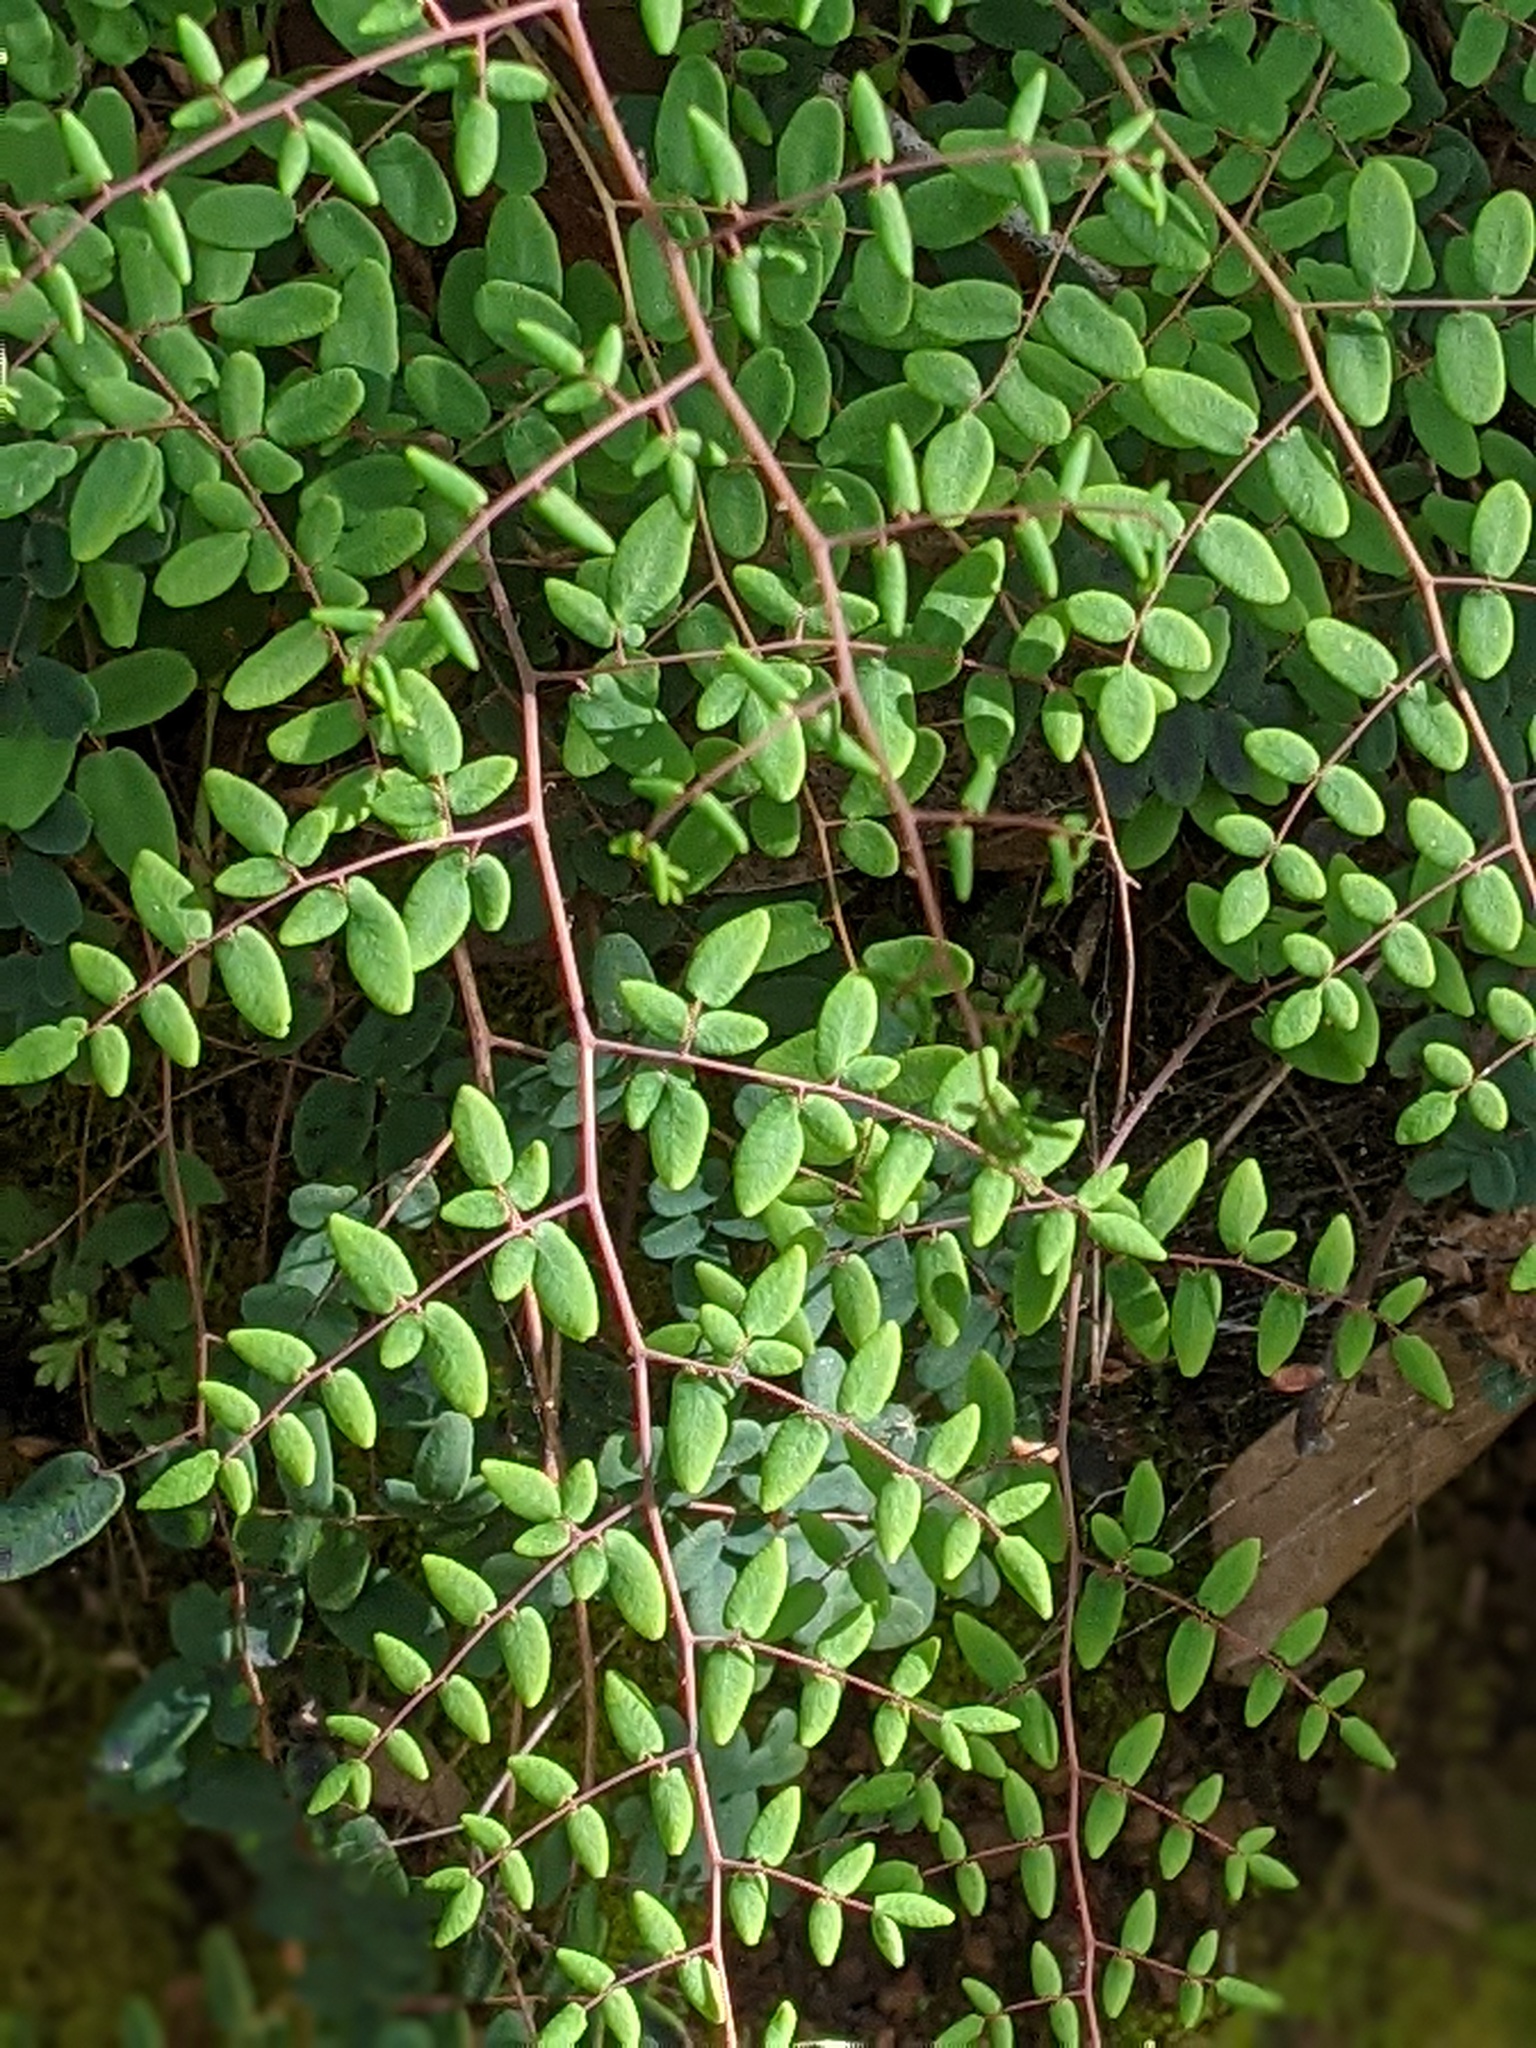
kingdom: Plantae
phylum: Tracheophyta
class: Polypodiopsida
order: Polypodiales
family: Pteridaceae
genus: Pellaea
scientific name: Pellaea andromedifolia
